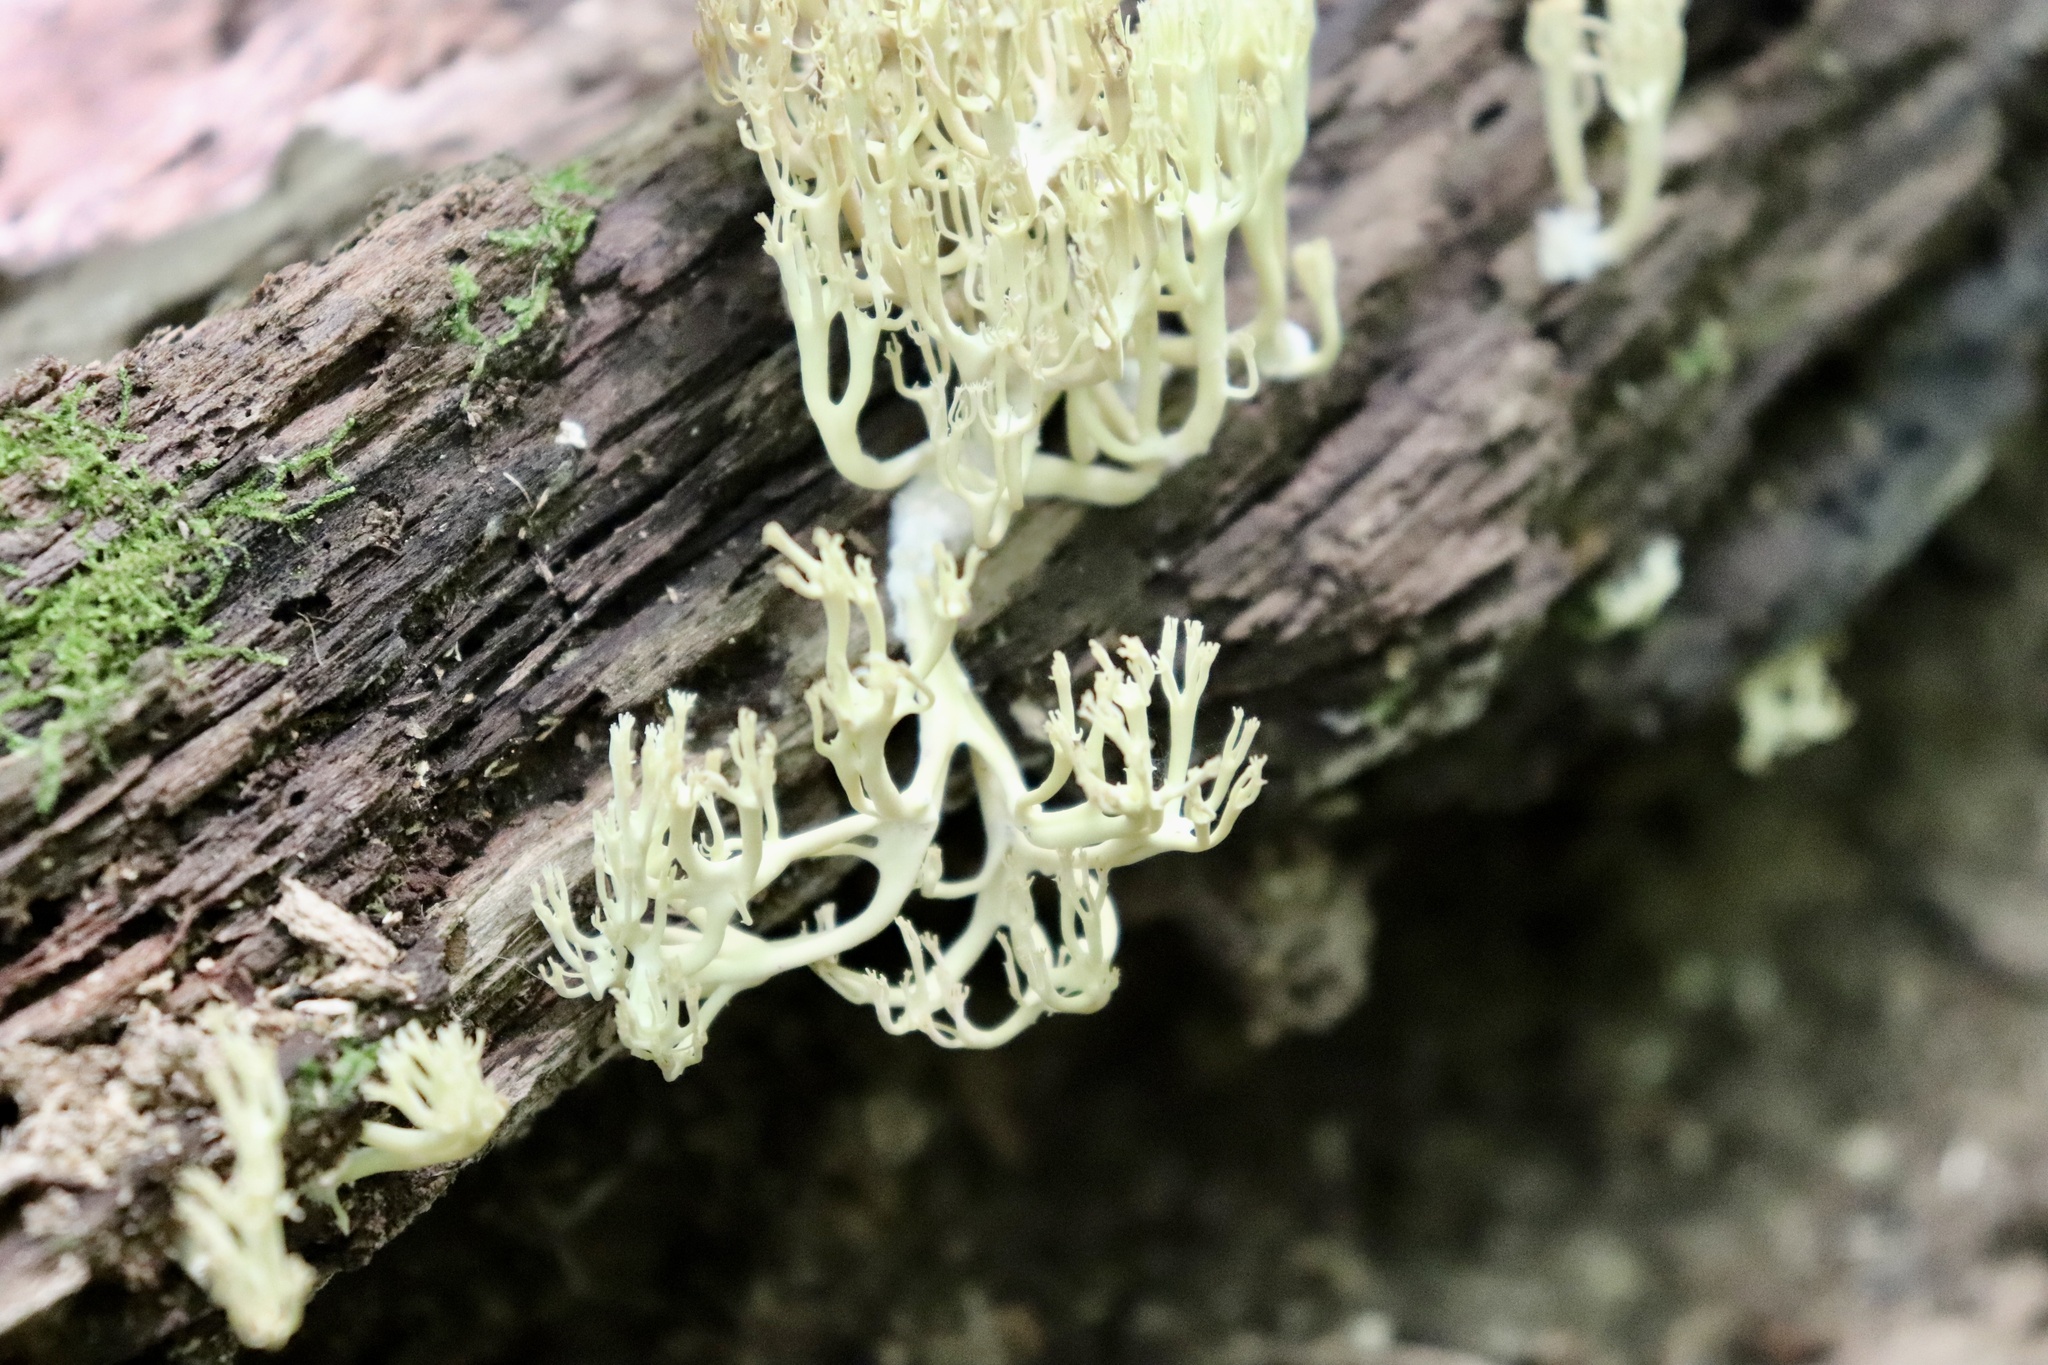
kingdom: Fungi
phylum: Basidiomycota
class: Agaricomycetes
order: Russulales
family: Auriscalpiaceae
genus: Artomyces
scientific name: Artomyces pyxidatus
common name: Crown-tipped coral fungus
